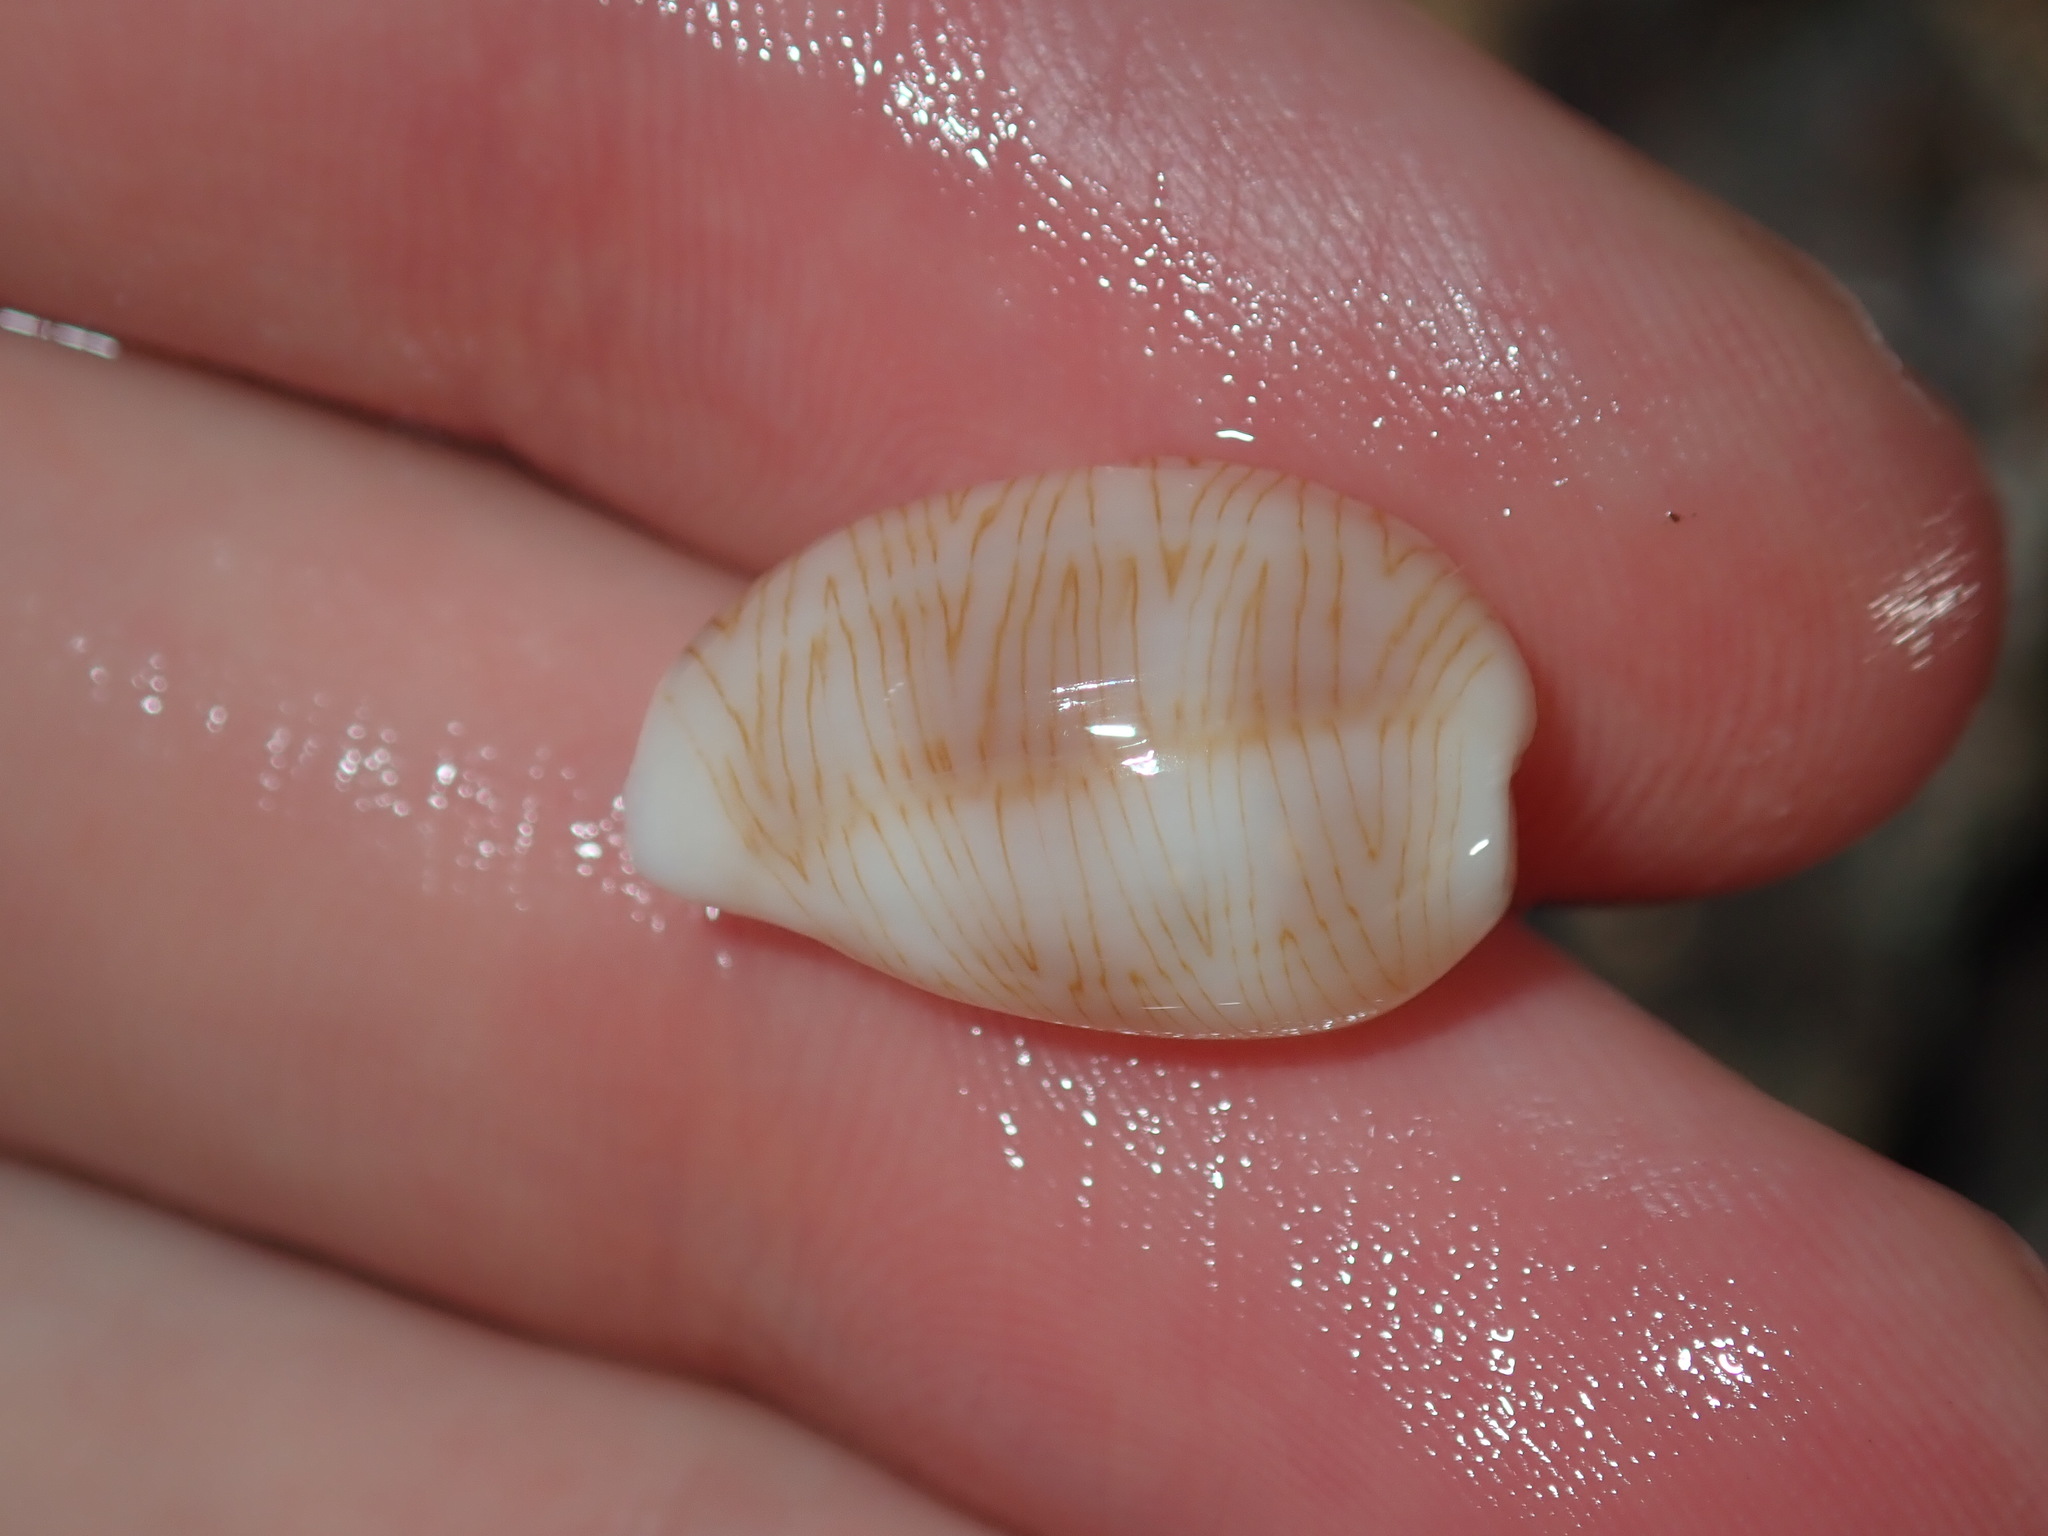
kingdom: Animalia
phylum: Mollusca
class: Gastropoda
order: Littorinimorpha
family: Cypraeidae
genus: Palmadusta
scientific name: Palmadusta clandestina
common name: Cowrie
